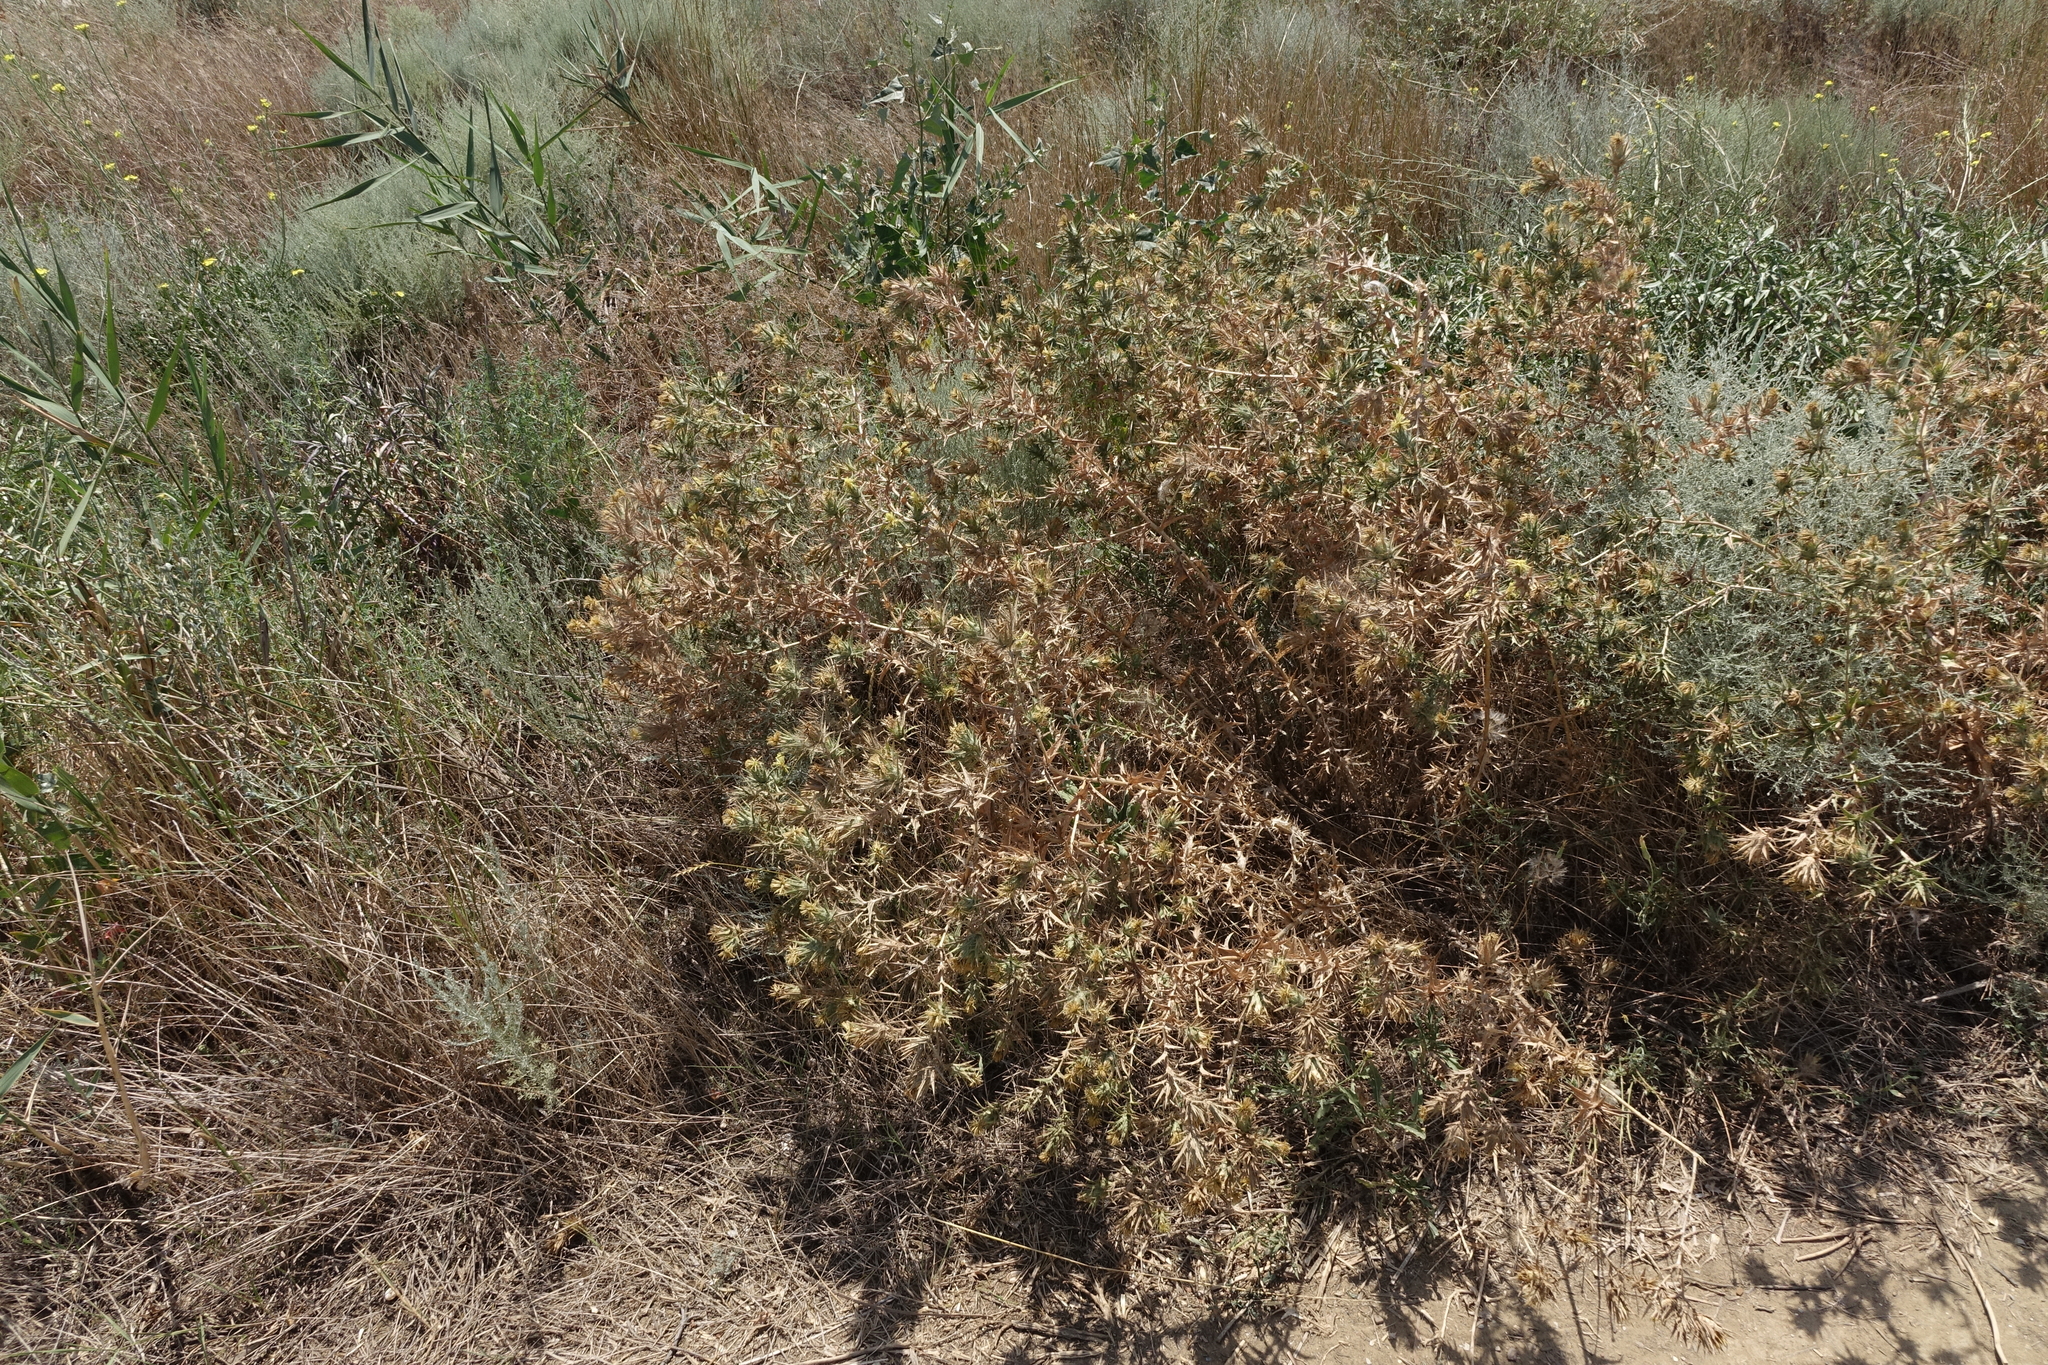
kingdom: Plantae
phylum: Tracheophyta
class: Magnoliopsida
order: Asterales
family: Asteraceae
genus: Carthamus
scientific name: Carthamus lanatus
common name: Downy safflower
